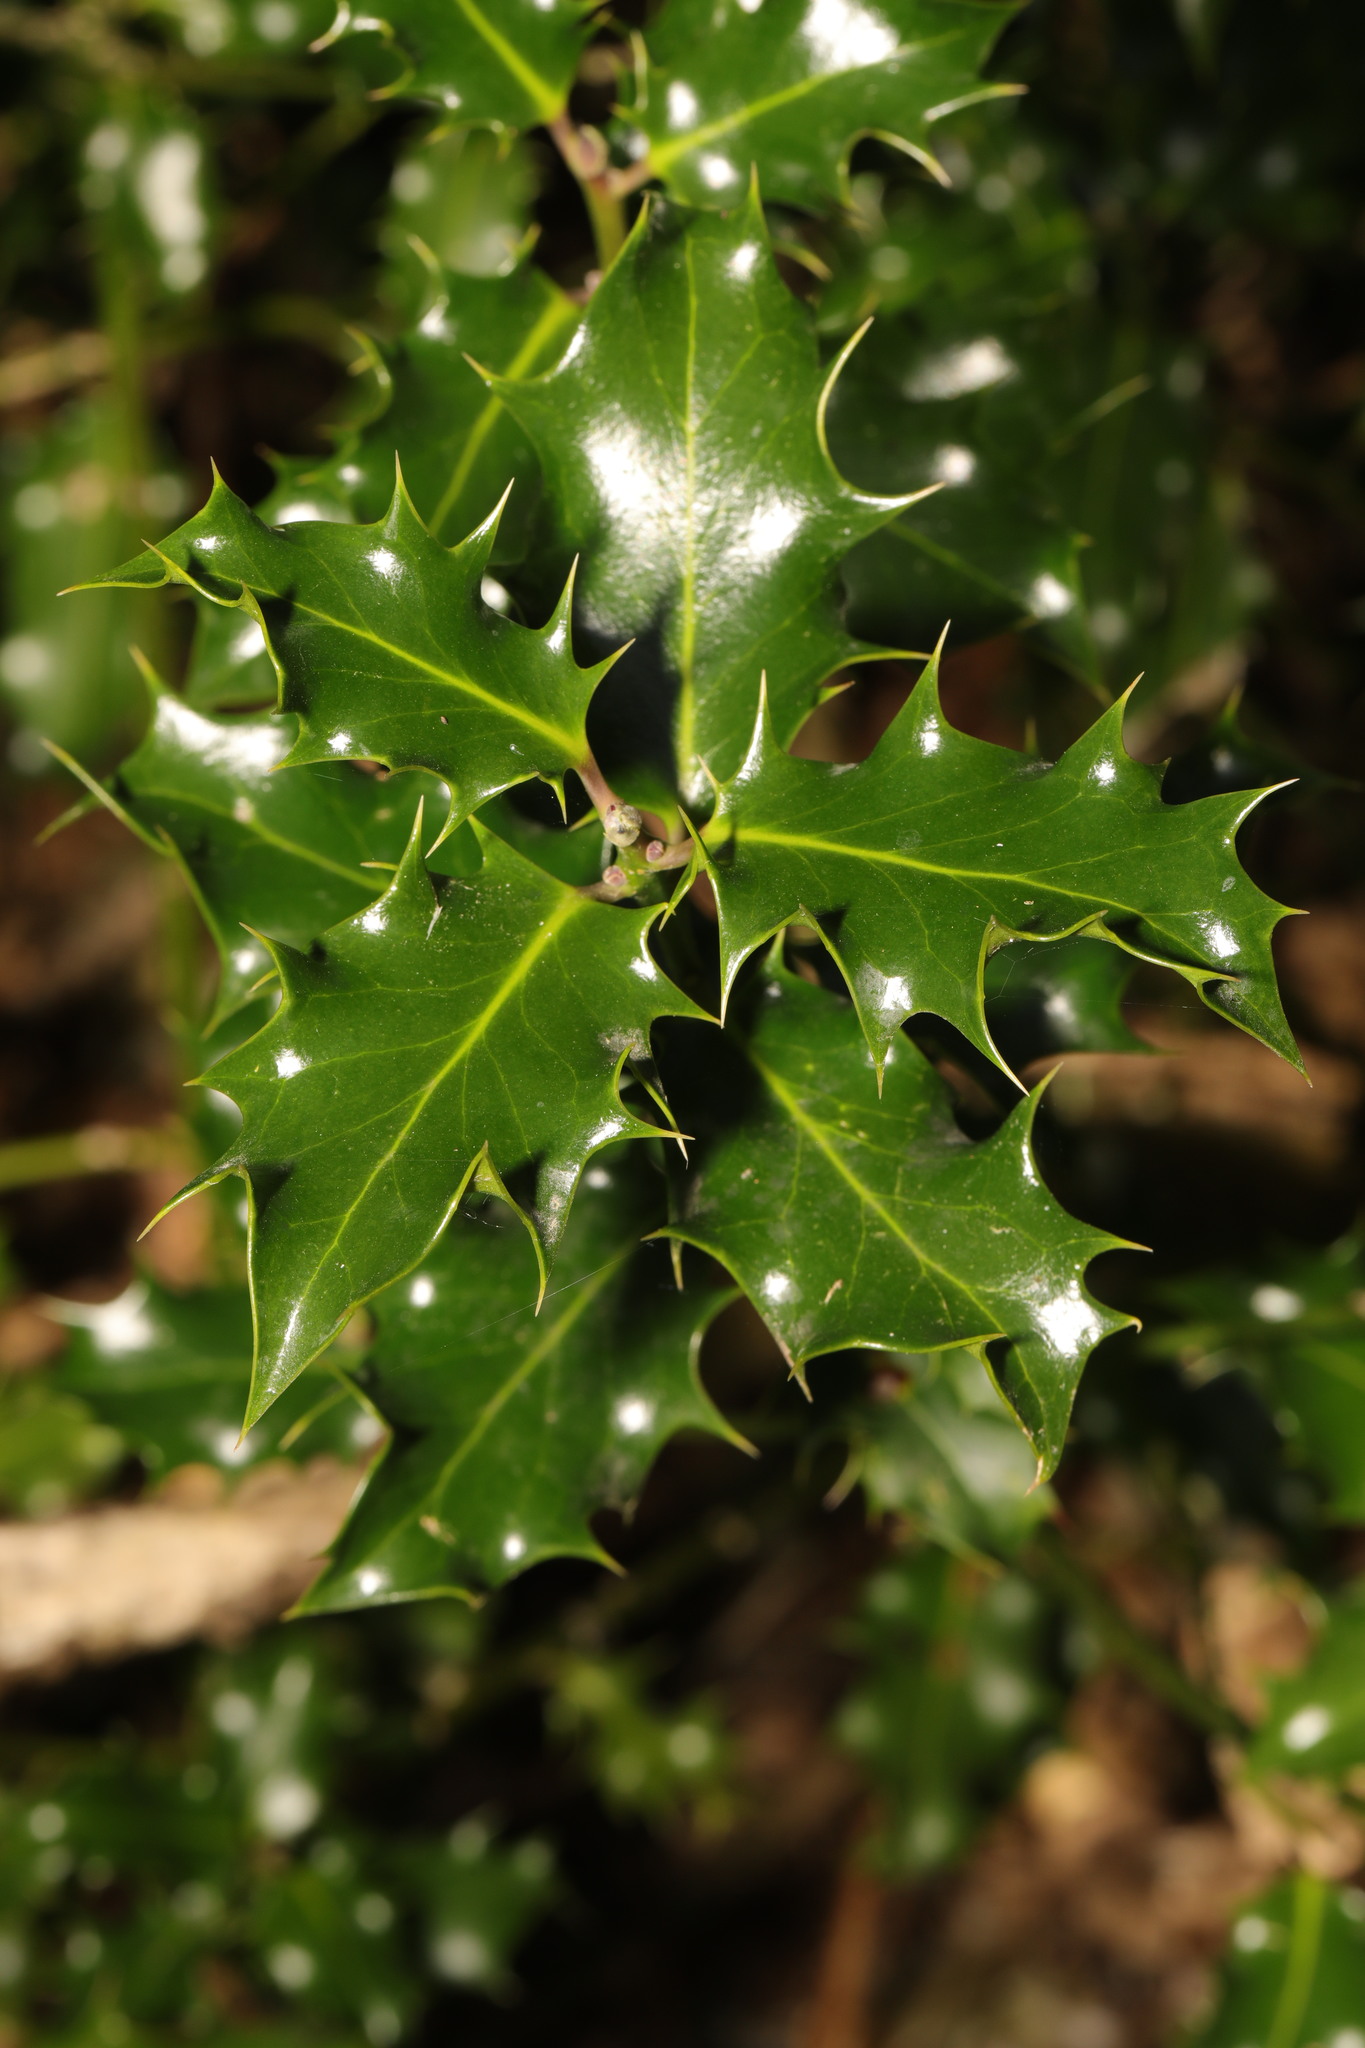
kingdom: Plantae
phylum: Tracheophyta
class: Magnoliopsida
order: Aquifoliales
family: Aquifoliaceae
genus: Ilex
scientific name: Ilex aquifolium
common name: English holly
